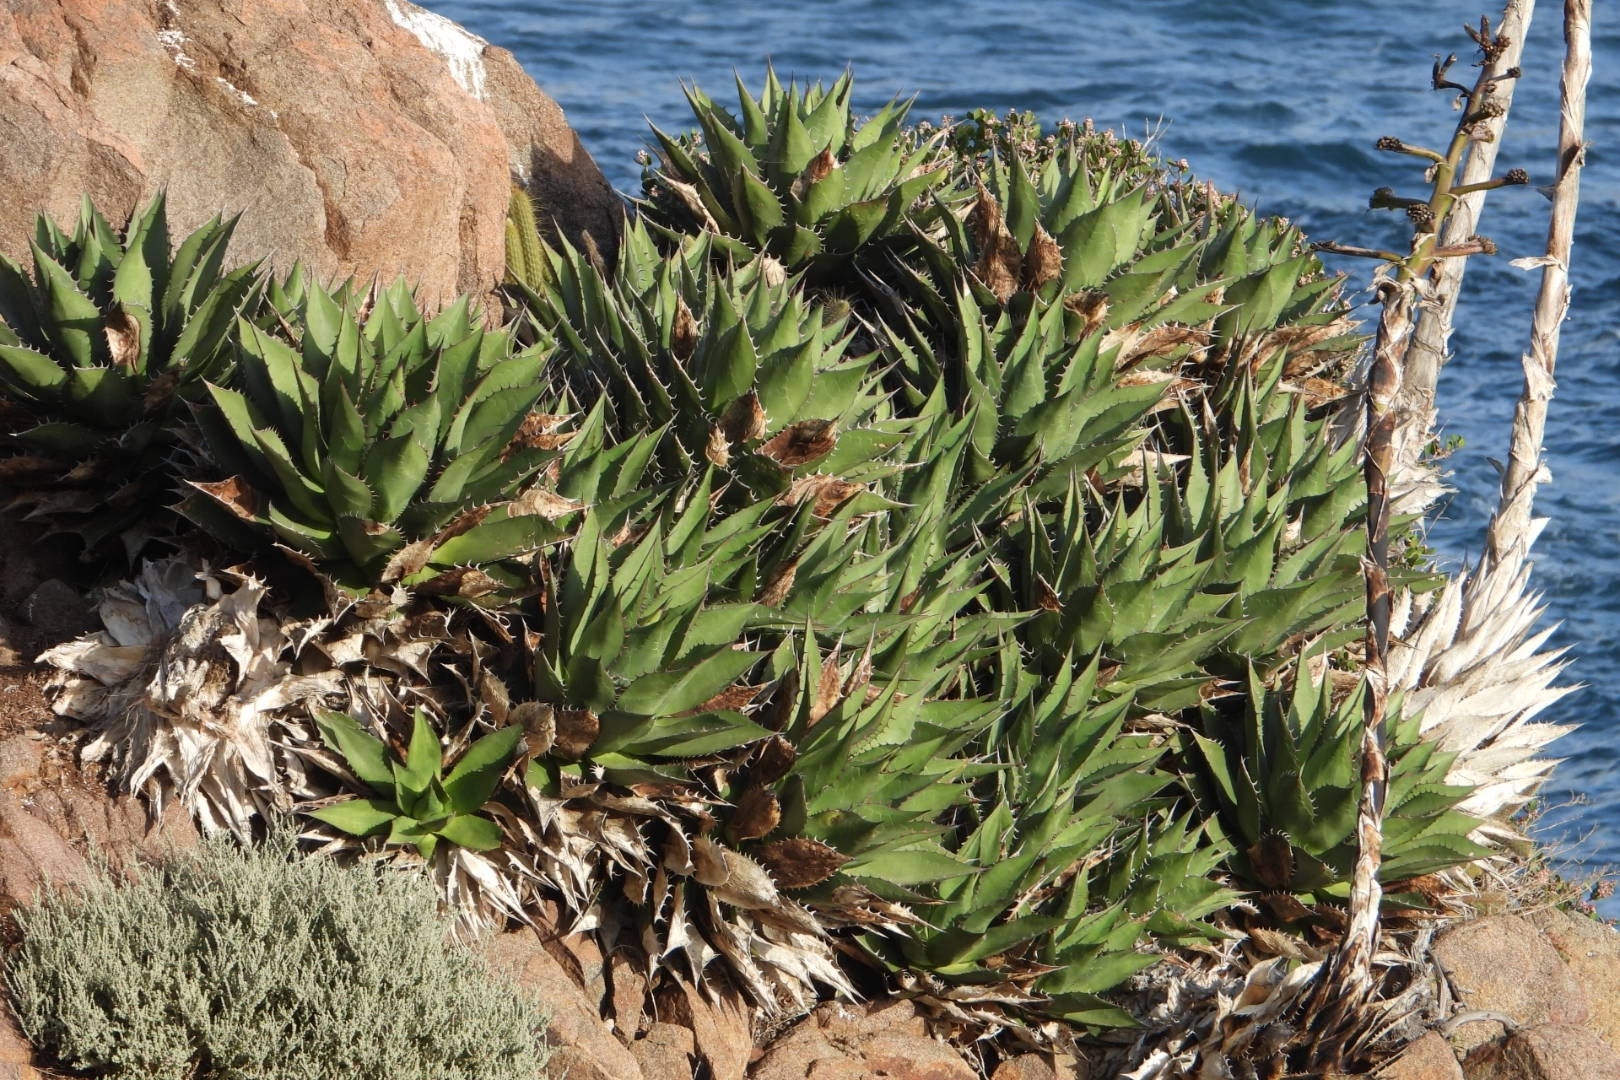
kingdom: Plantae
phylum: Tracheophyta
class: Liliopsida
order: Asparagales
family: Asparagaceae
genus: Agave
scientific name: Agave shawii
